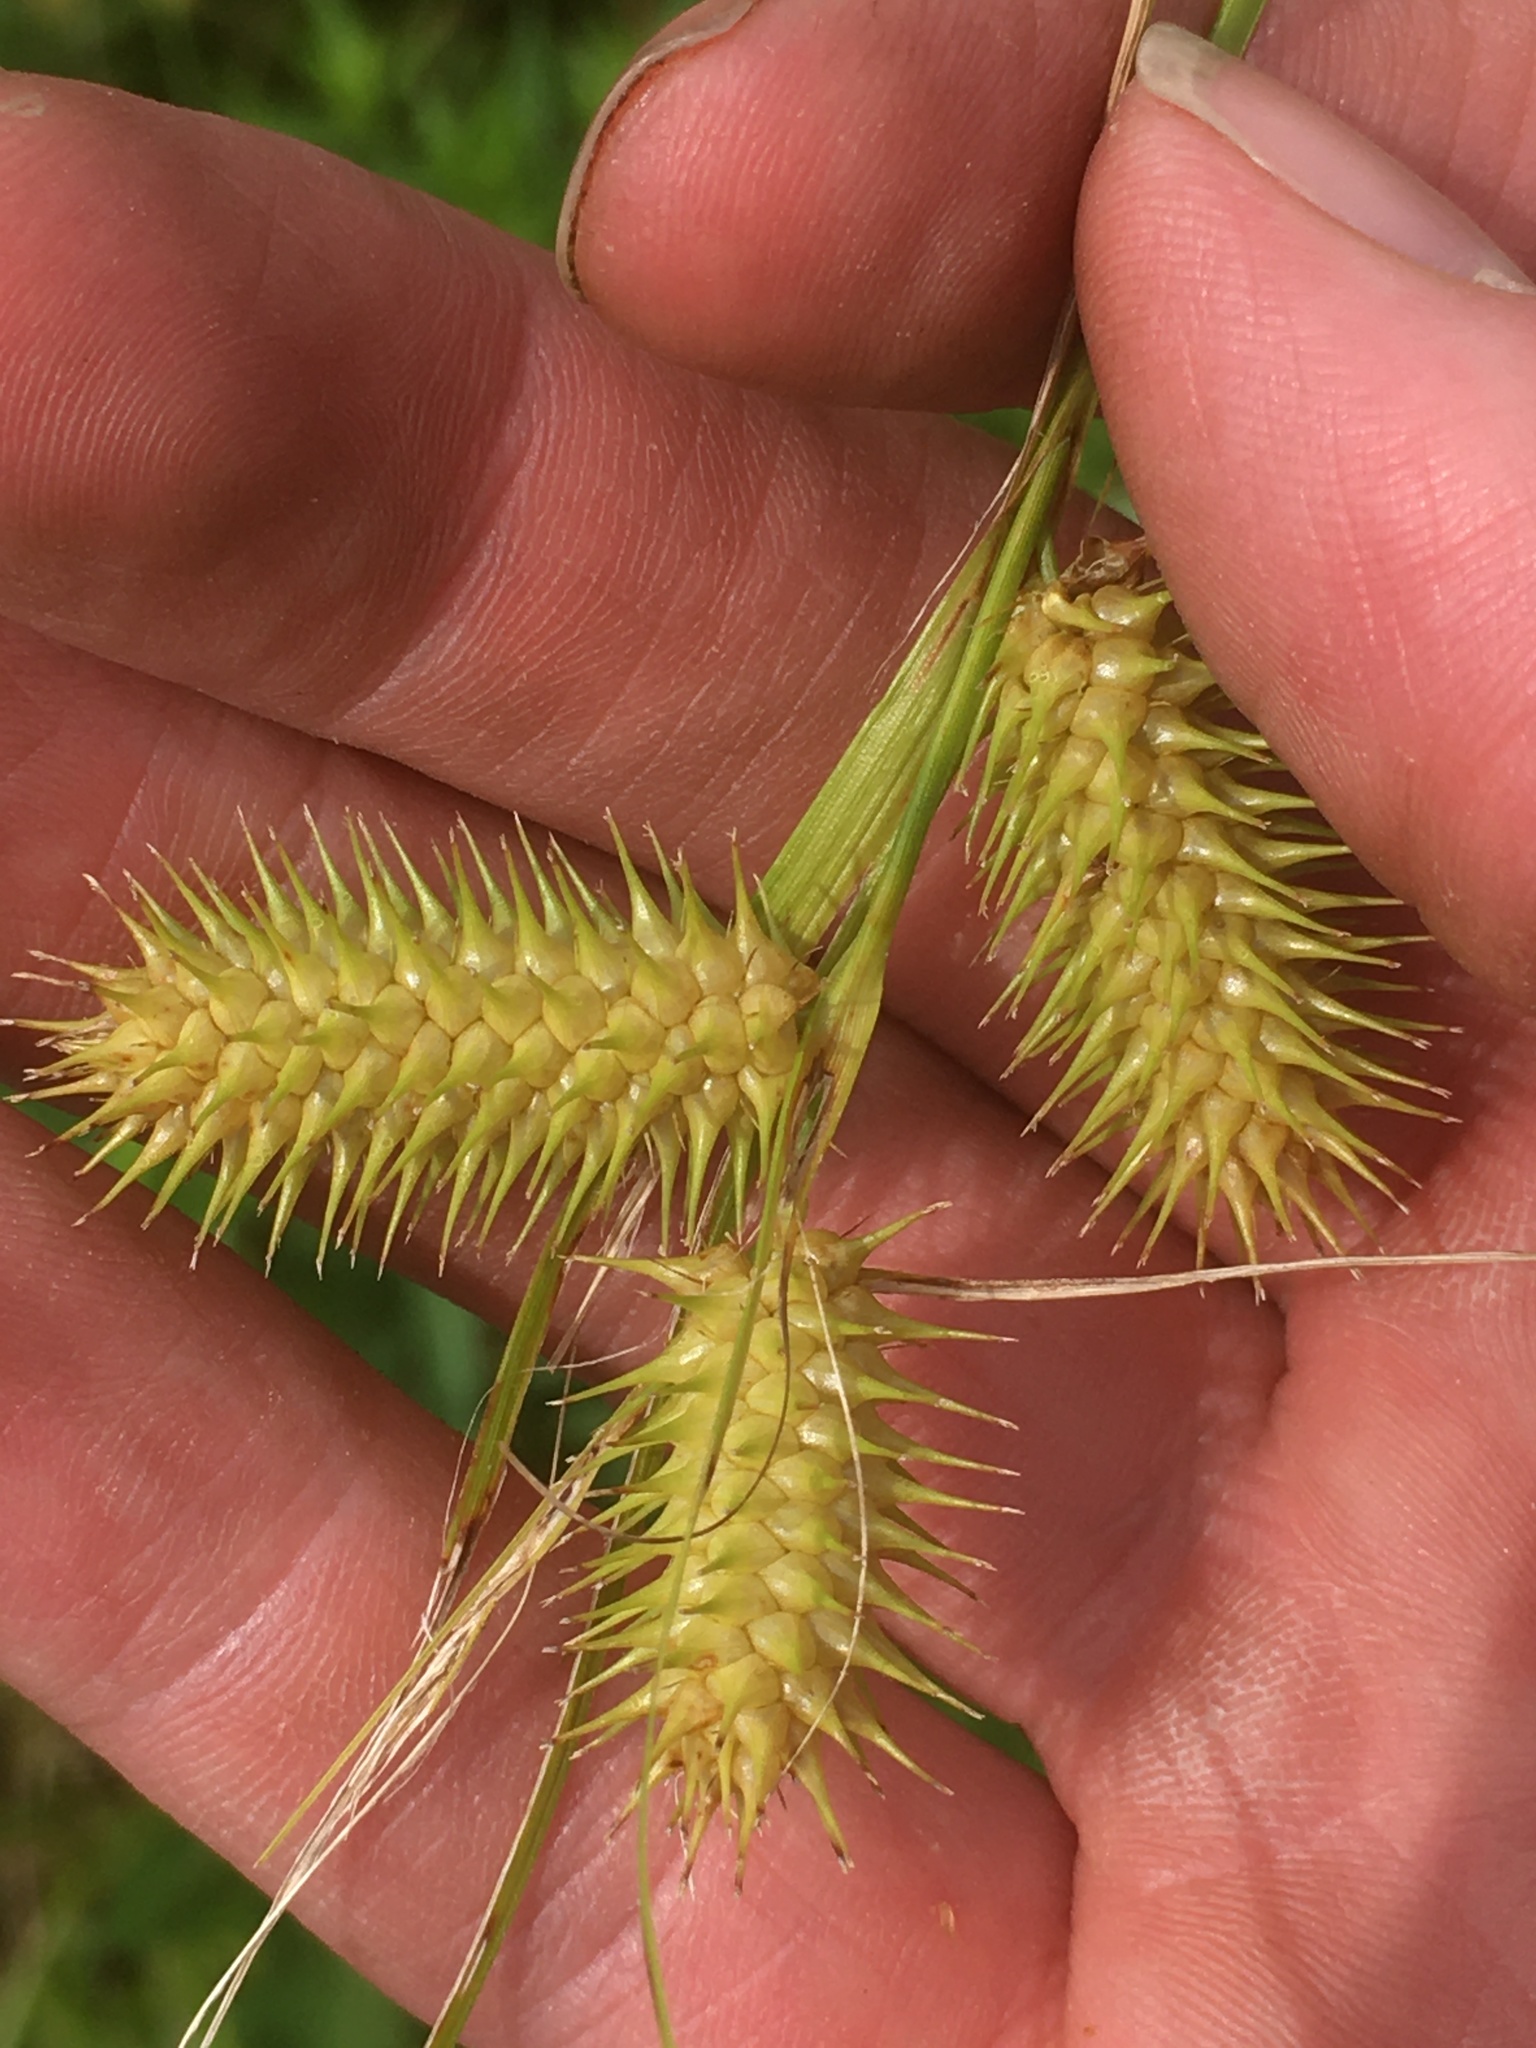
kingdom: Plantae
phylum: Tracheophyta
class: Liliopsida
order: Poales
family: Cyperaceae
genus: Carex
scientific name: Carex lurida
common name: Sallow sedge
